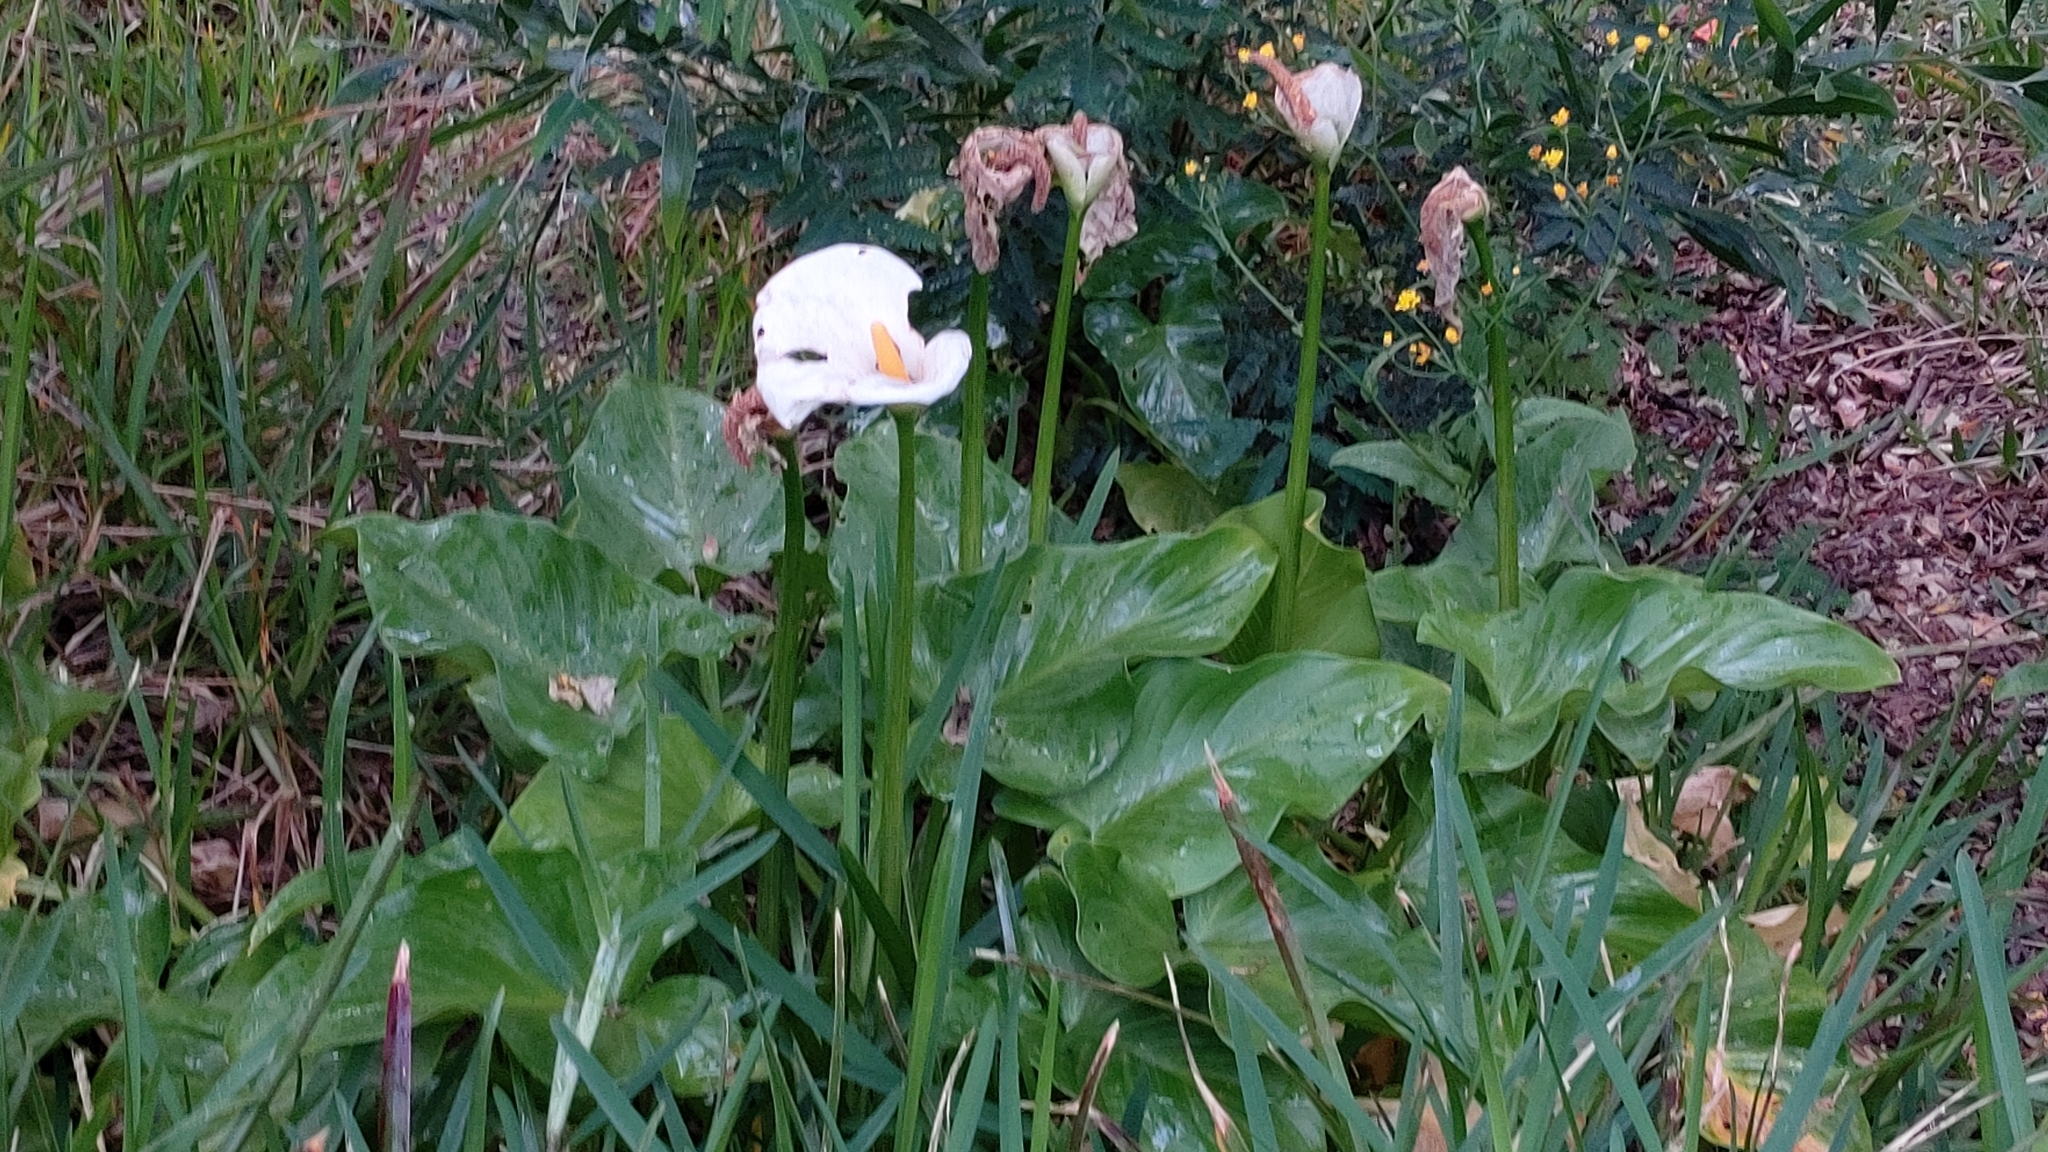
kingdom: Plantae
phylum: Tracheophyta
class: Liliopsida
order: Alismatales
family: Araceae
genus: Zantedeschia
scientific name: Zantedeschia aethiopica
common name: Altar-lily
